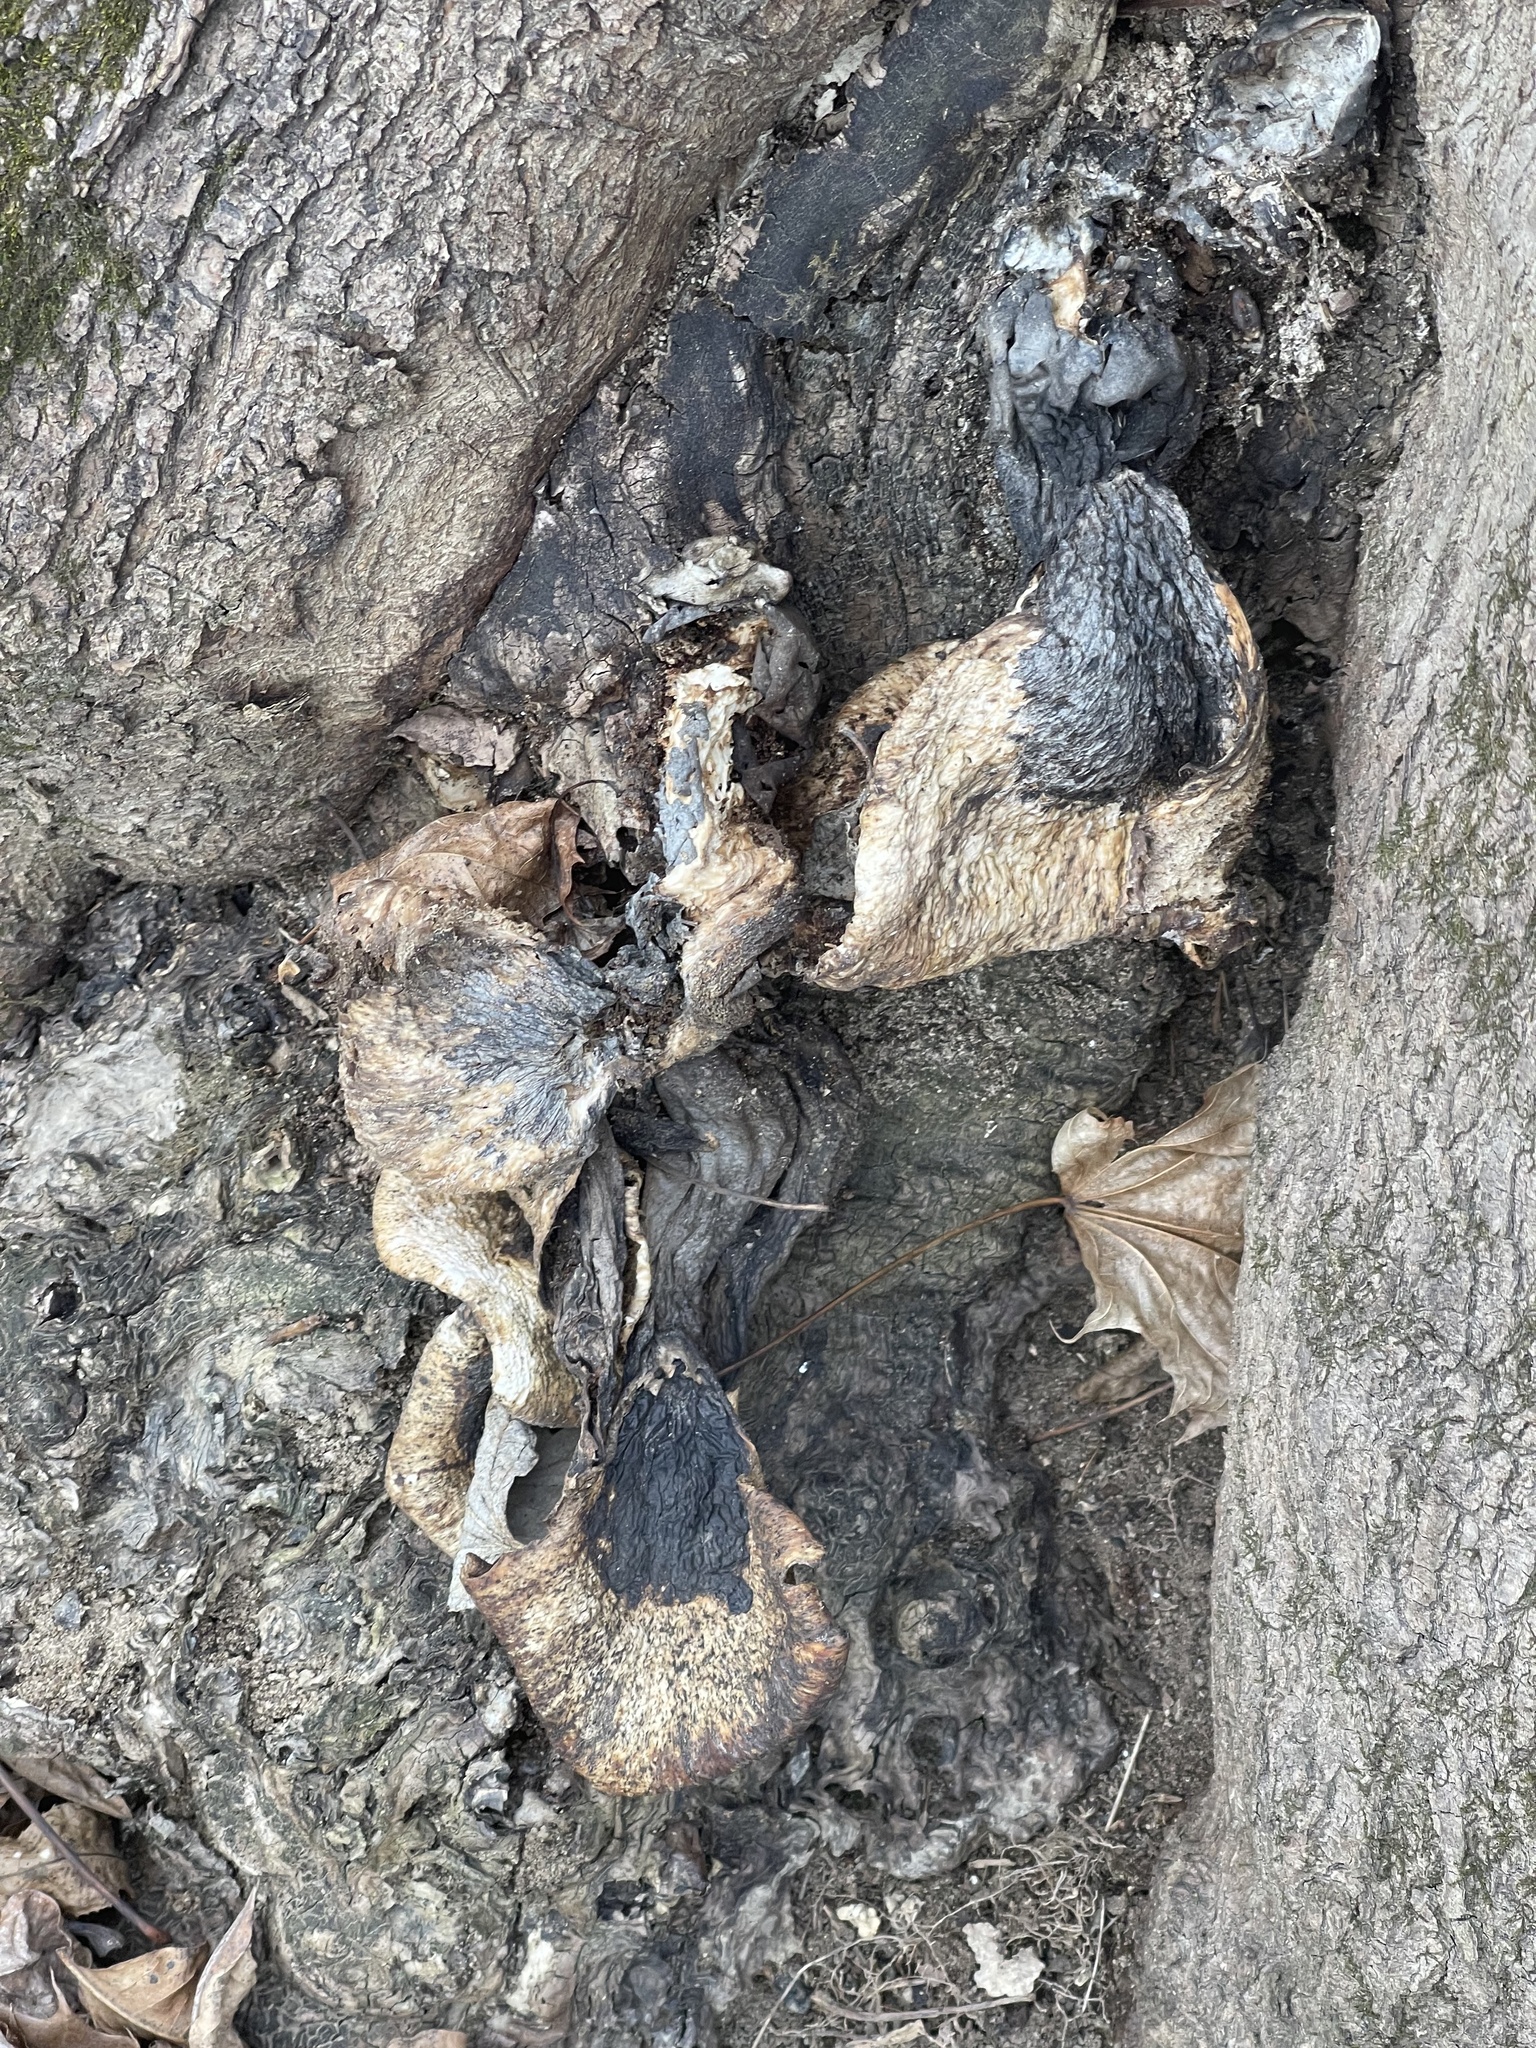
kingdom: Fungi
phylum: Basidiomycota
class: Agaricomycetes
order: Polyporales
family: Polyporaceae
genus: Cerioporus
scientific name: Cerioporus squamosus
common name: Dryad's saddle
